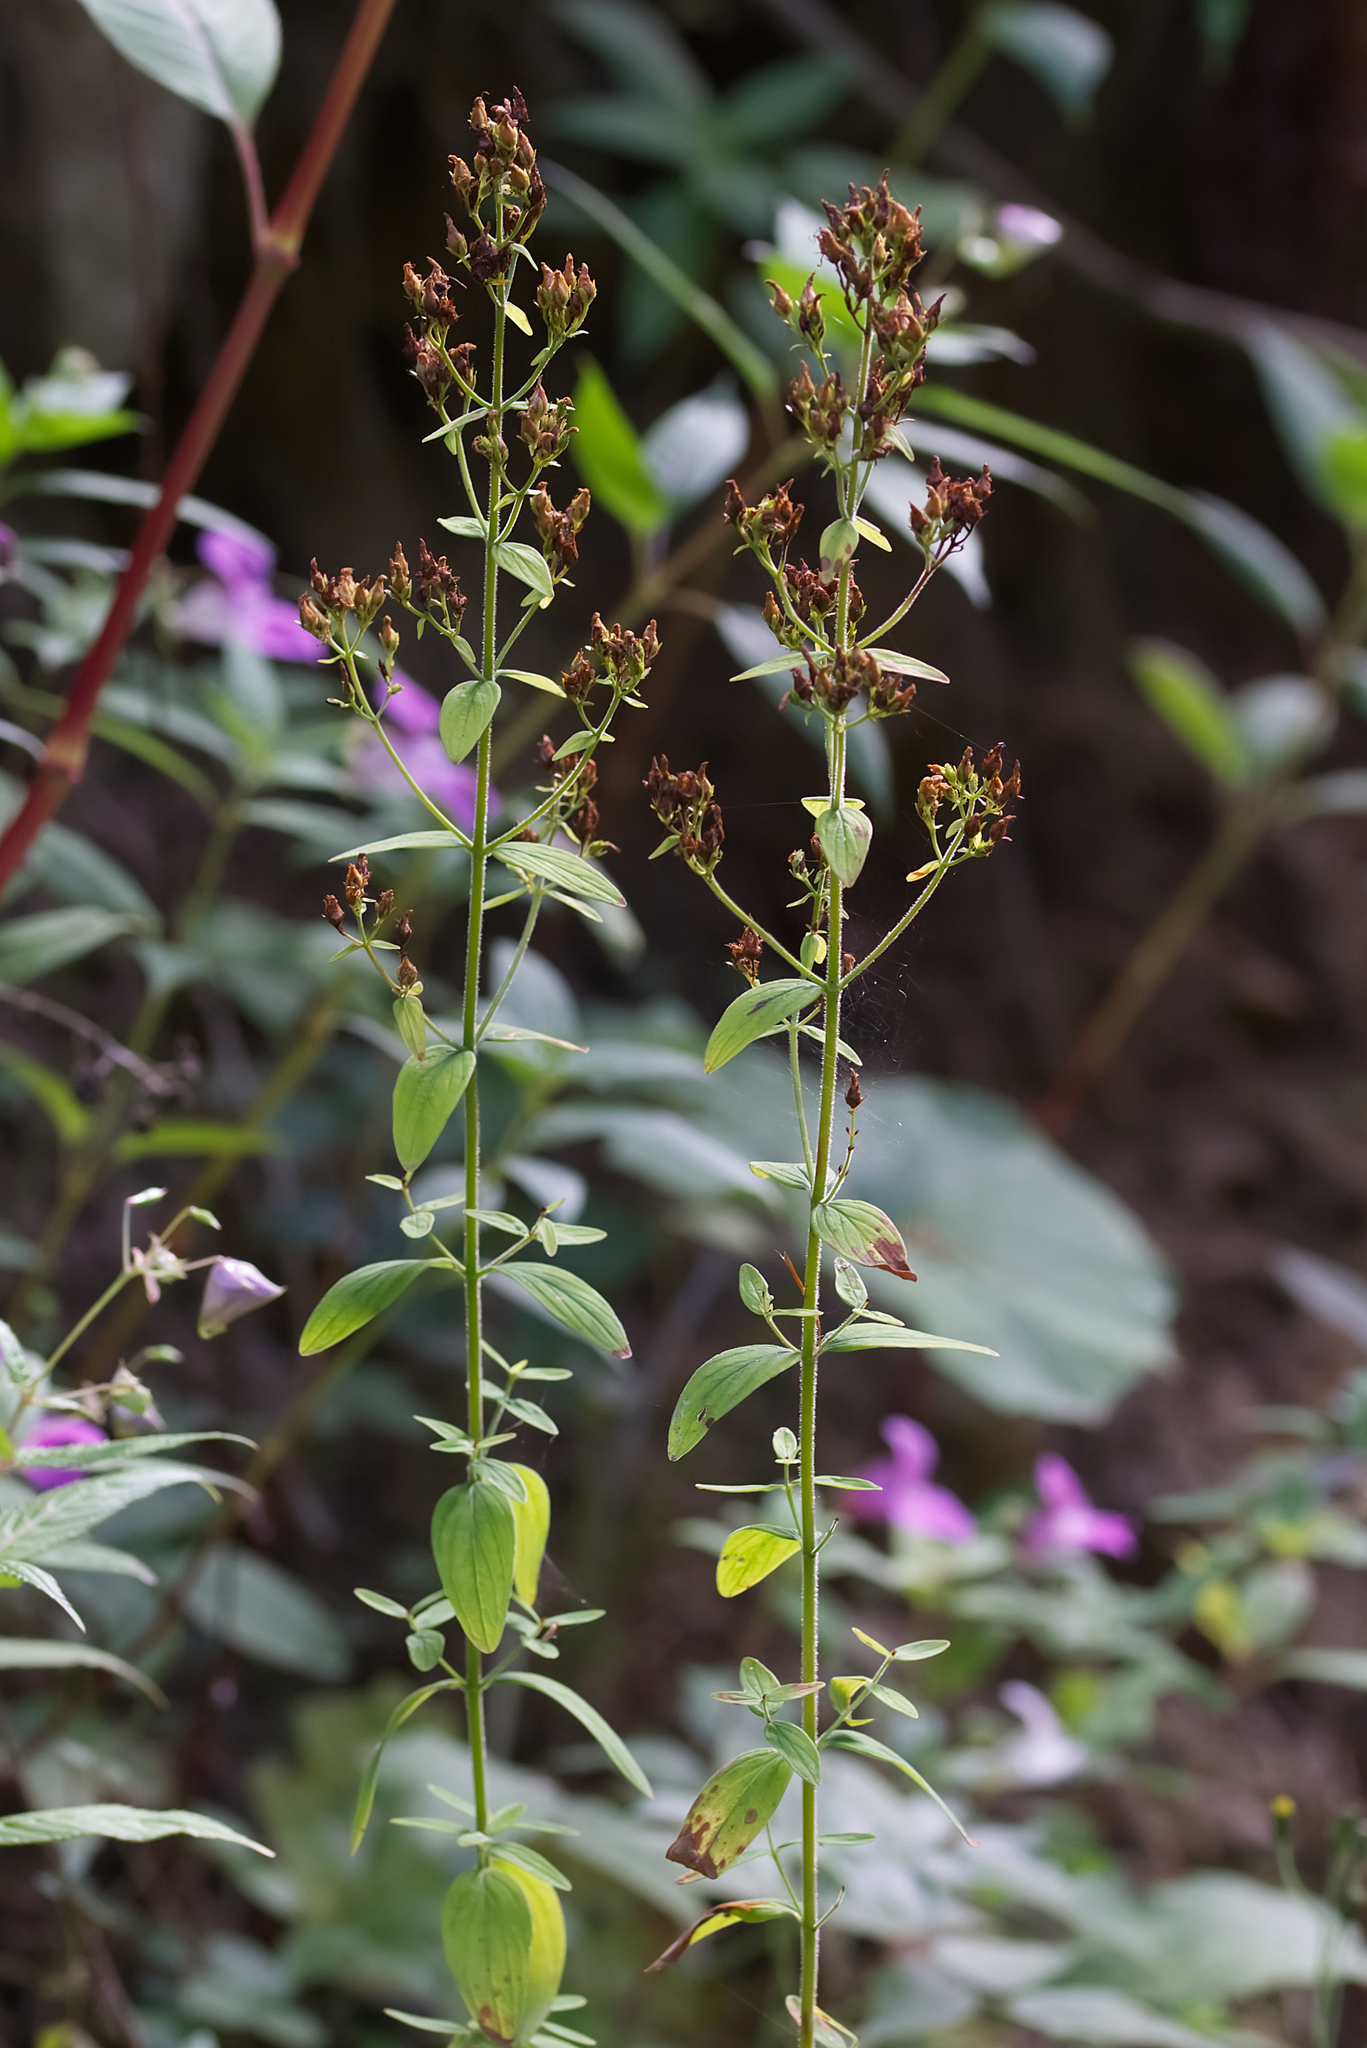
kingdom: Plantae
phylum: Tracheophyta
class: Magnoliopsida
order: Malpighiales
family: Hypericaceae
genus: Hypericum
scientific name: Hypericum hirsutum
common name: Hairy st. john's-wort
